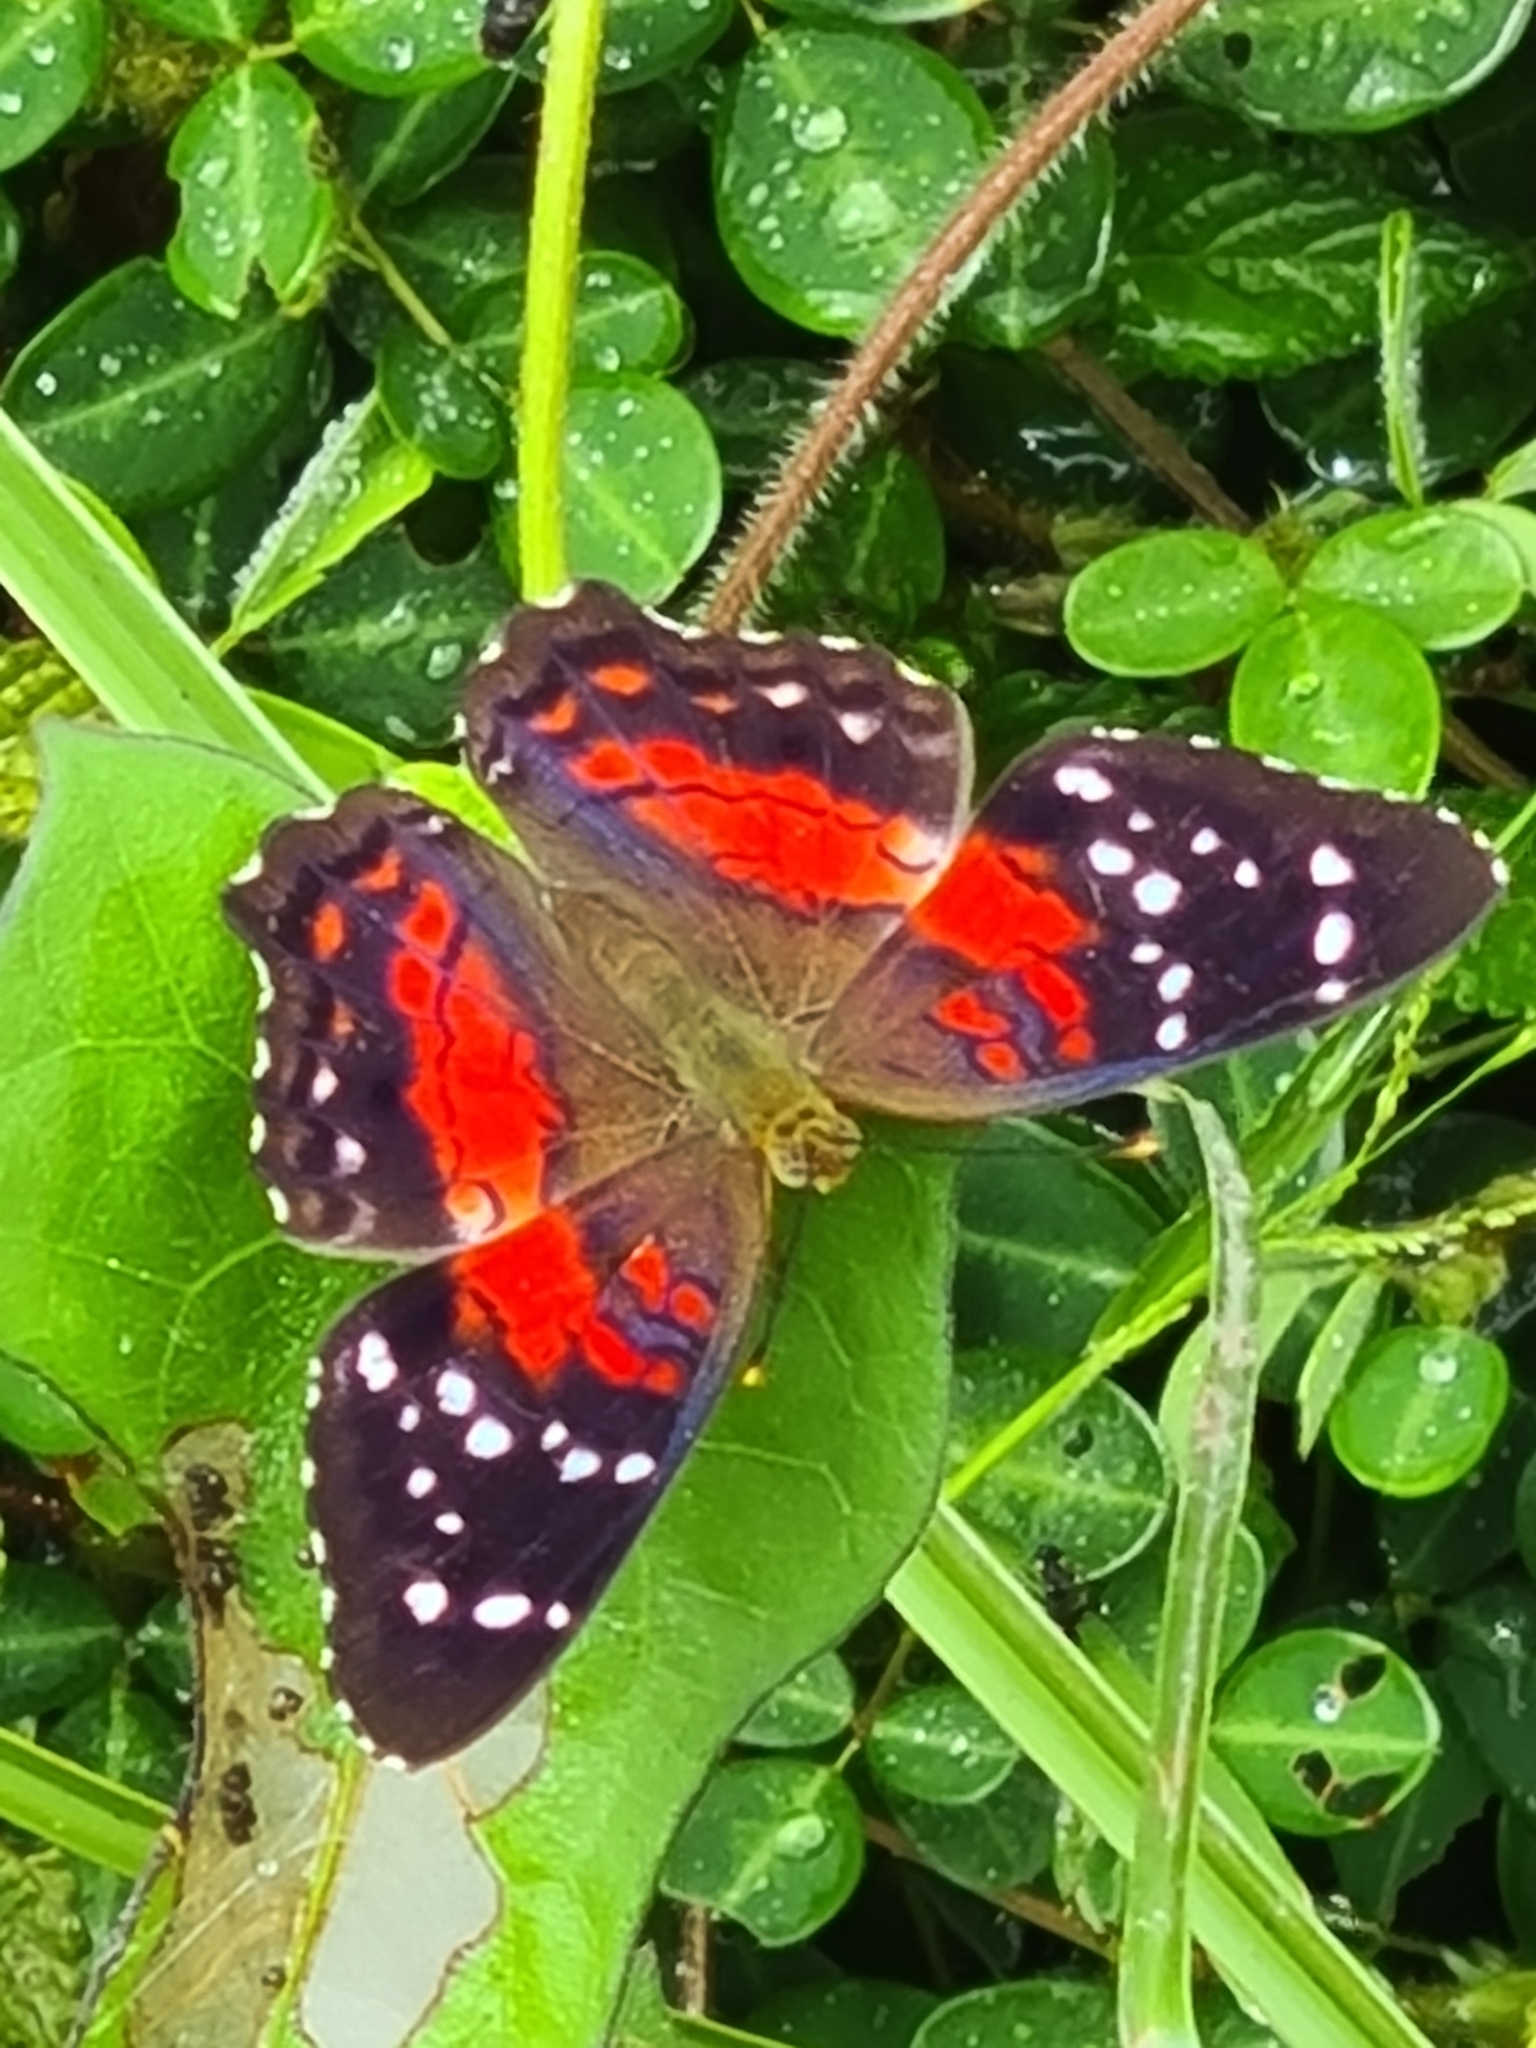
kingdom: Animalia
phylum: Arthropoda
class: Insecta
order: Lepidoptera
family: Nymphalidae
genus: Anartia
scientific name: Anartia amathea
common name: Red peacock
